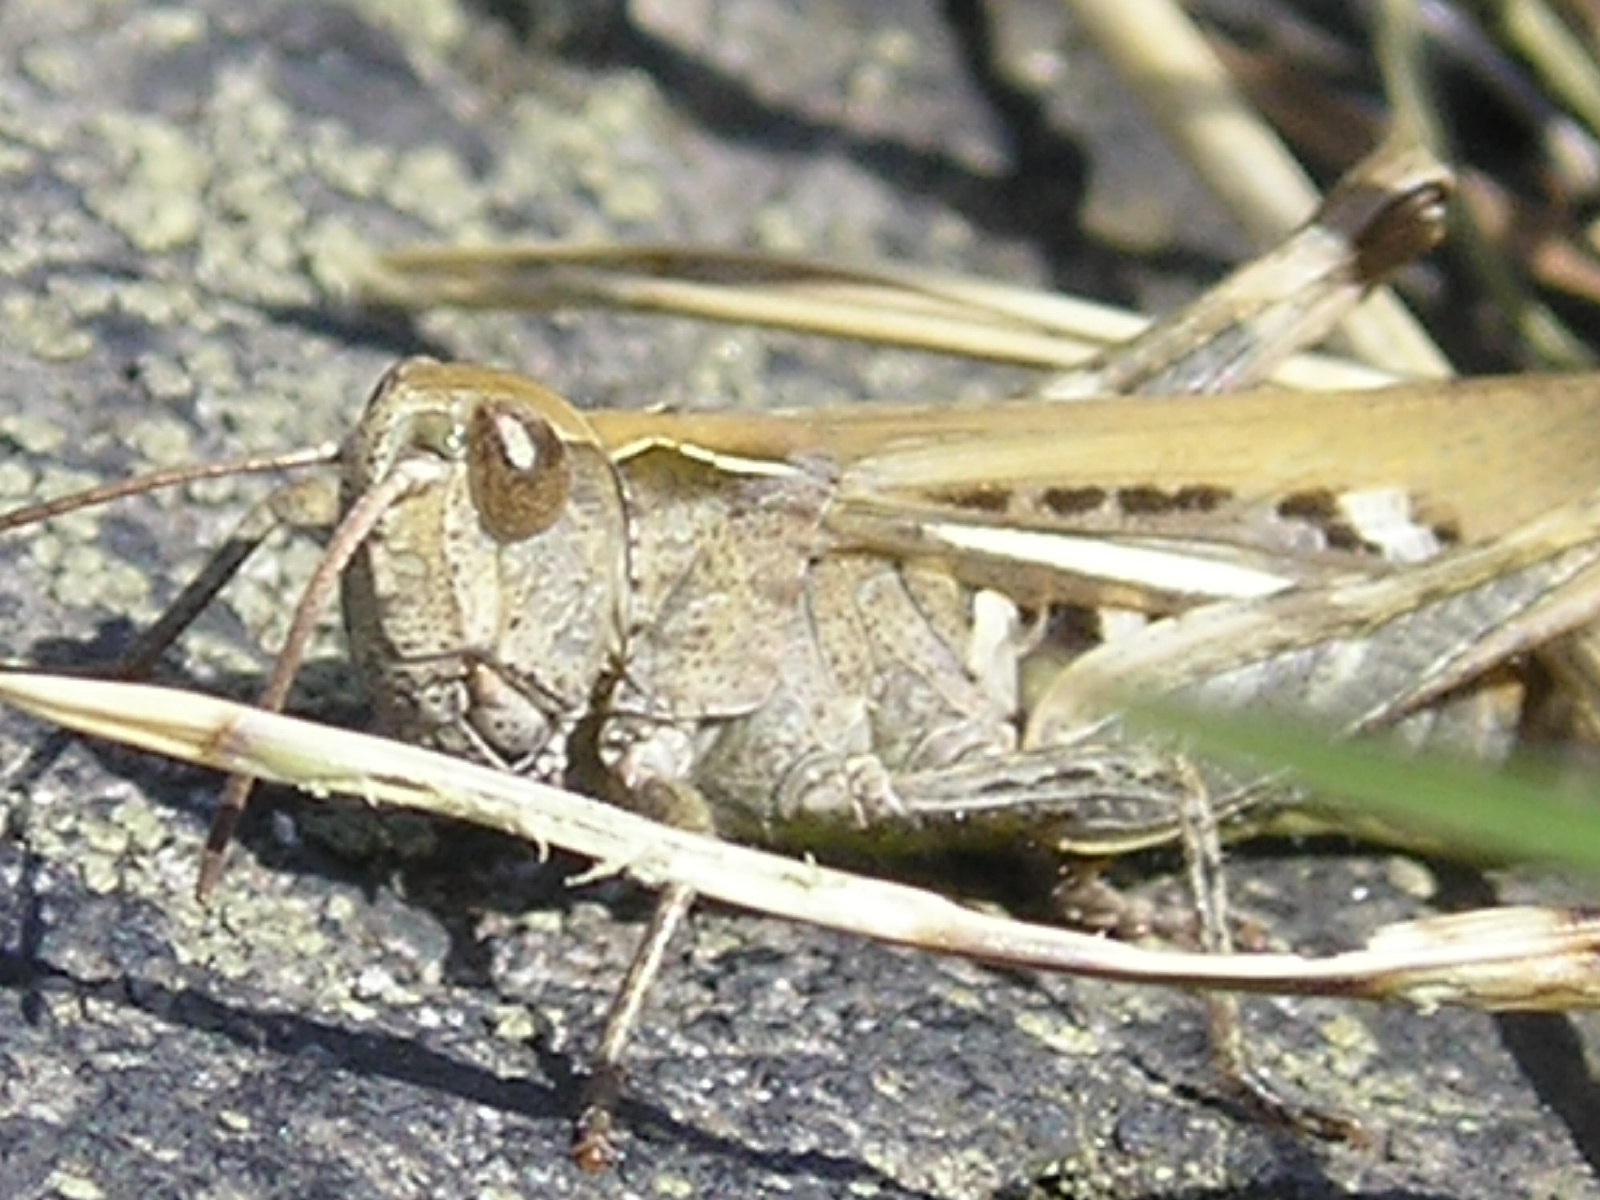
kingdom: Animalia
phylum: Arthropoda
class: Insecta
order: Orthoptera
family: Acrididae
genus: Chorthippus
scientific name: Chorthippus biguttulus
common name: Bow-winged grasshopper
